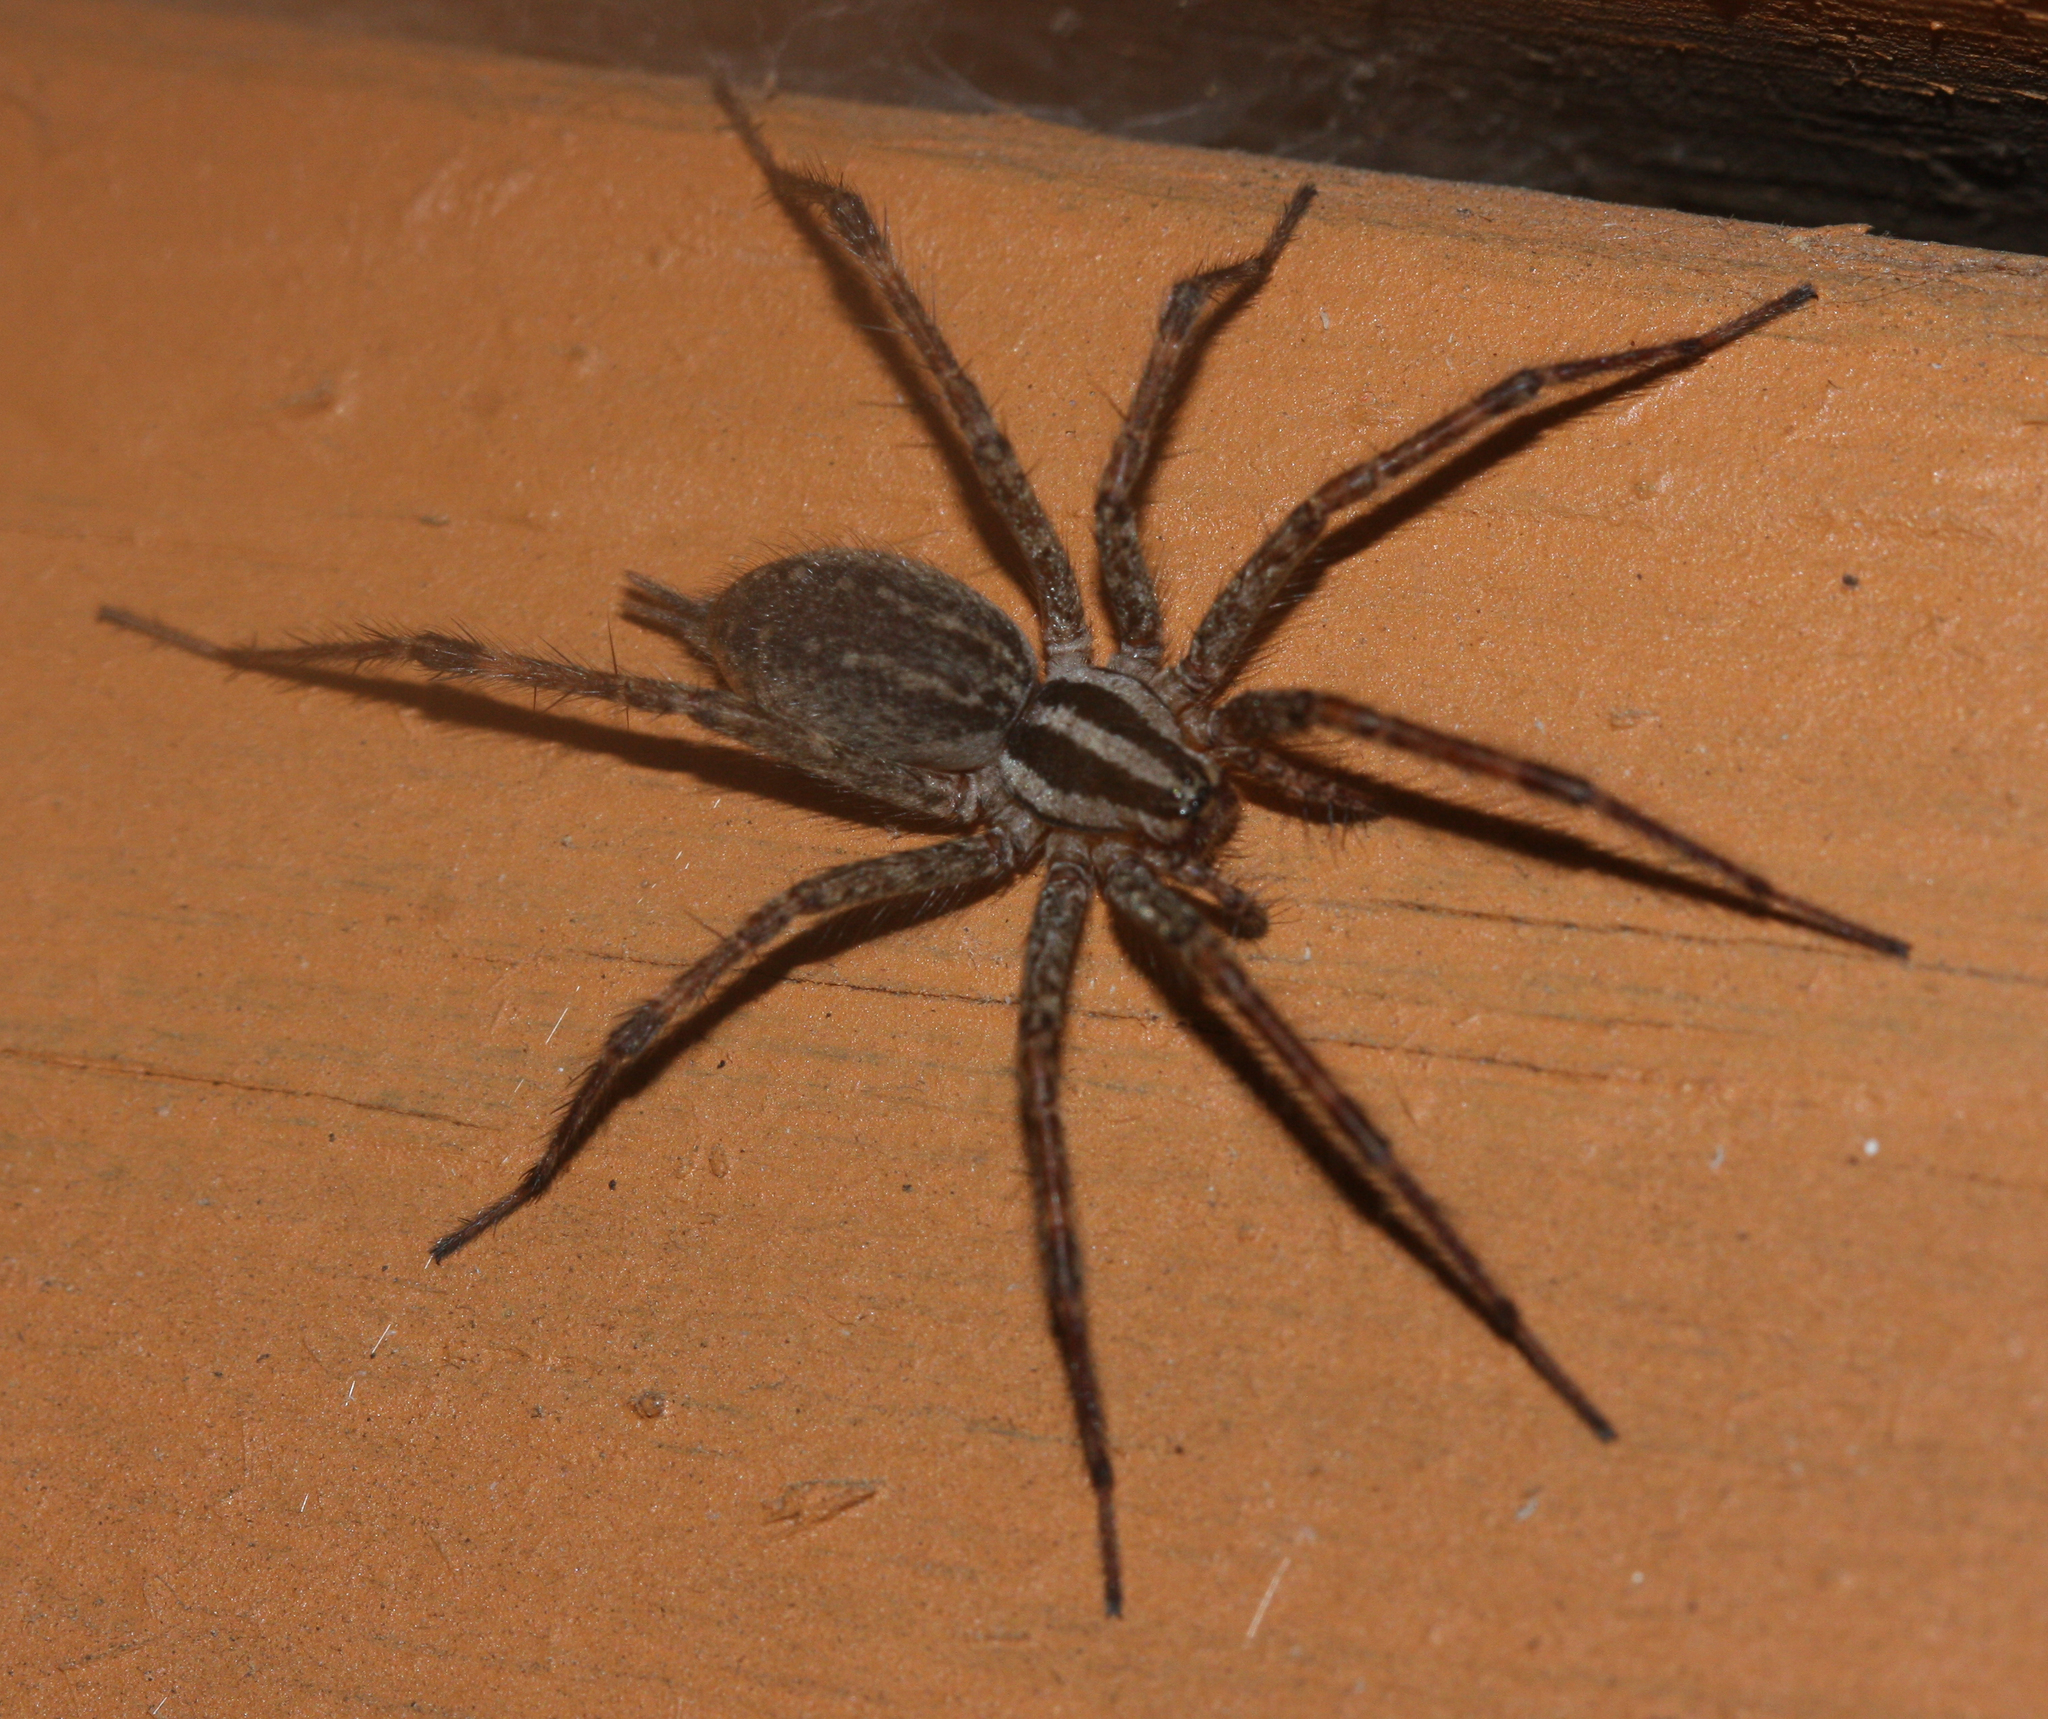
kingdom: Animalia
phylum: Arthropoda
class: Arachnida
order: Araneae
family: Agelenidae
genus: Agelenopsis
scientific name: Agelenopsis
